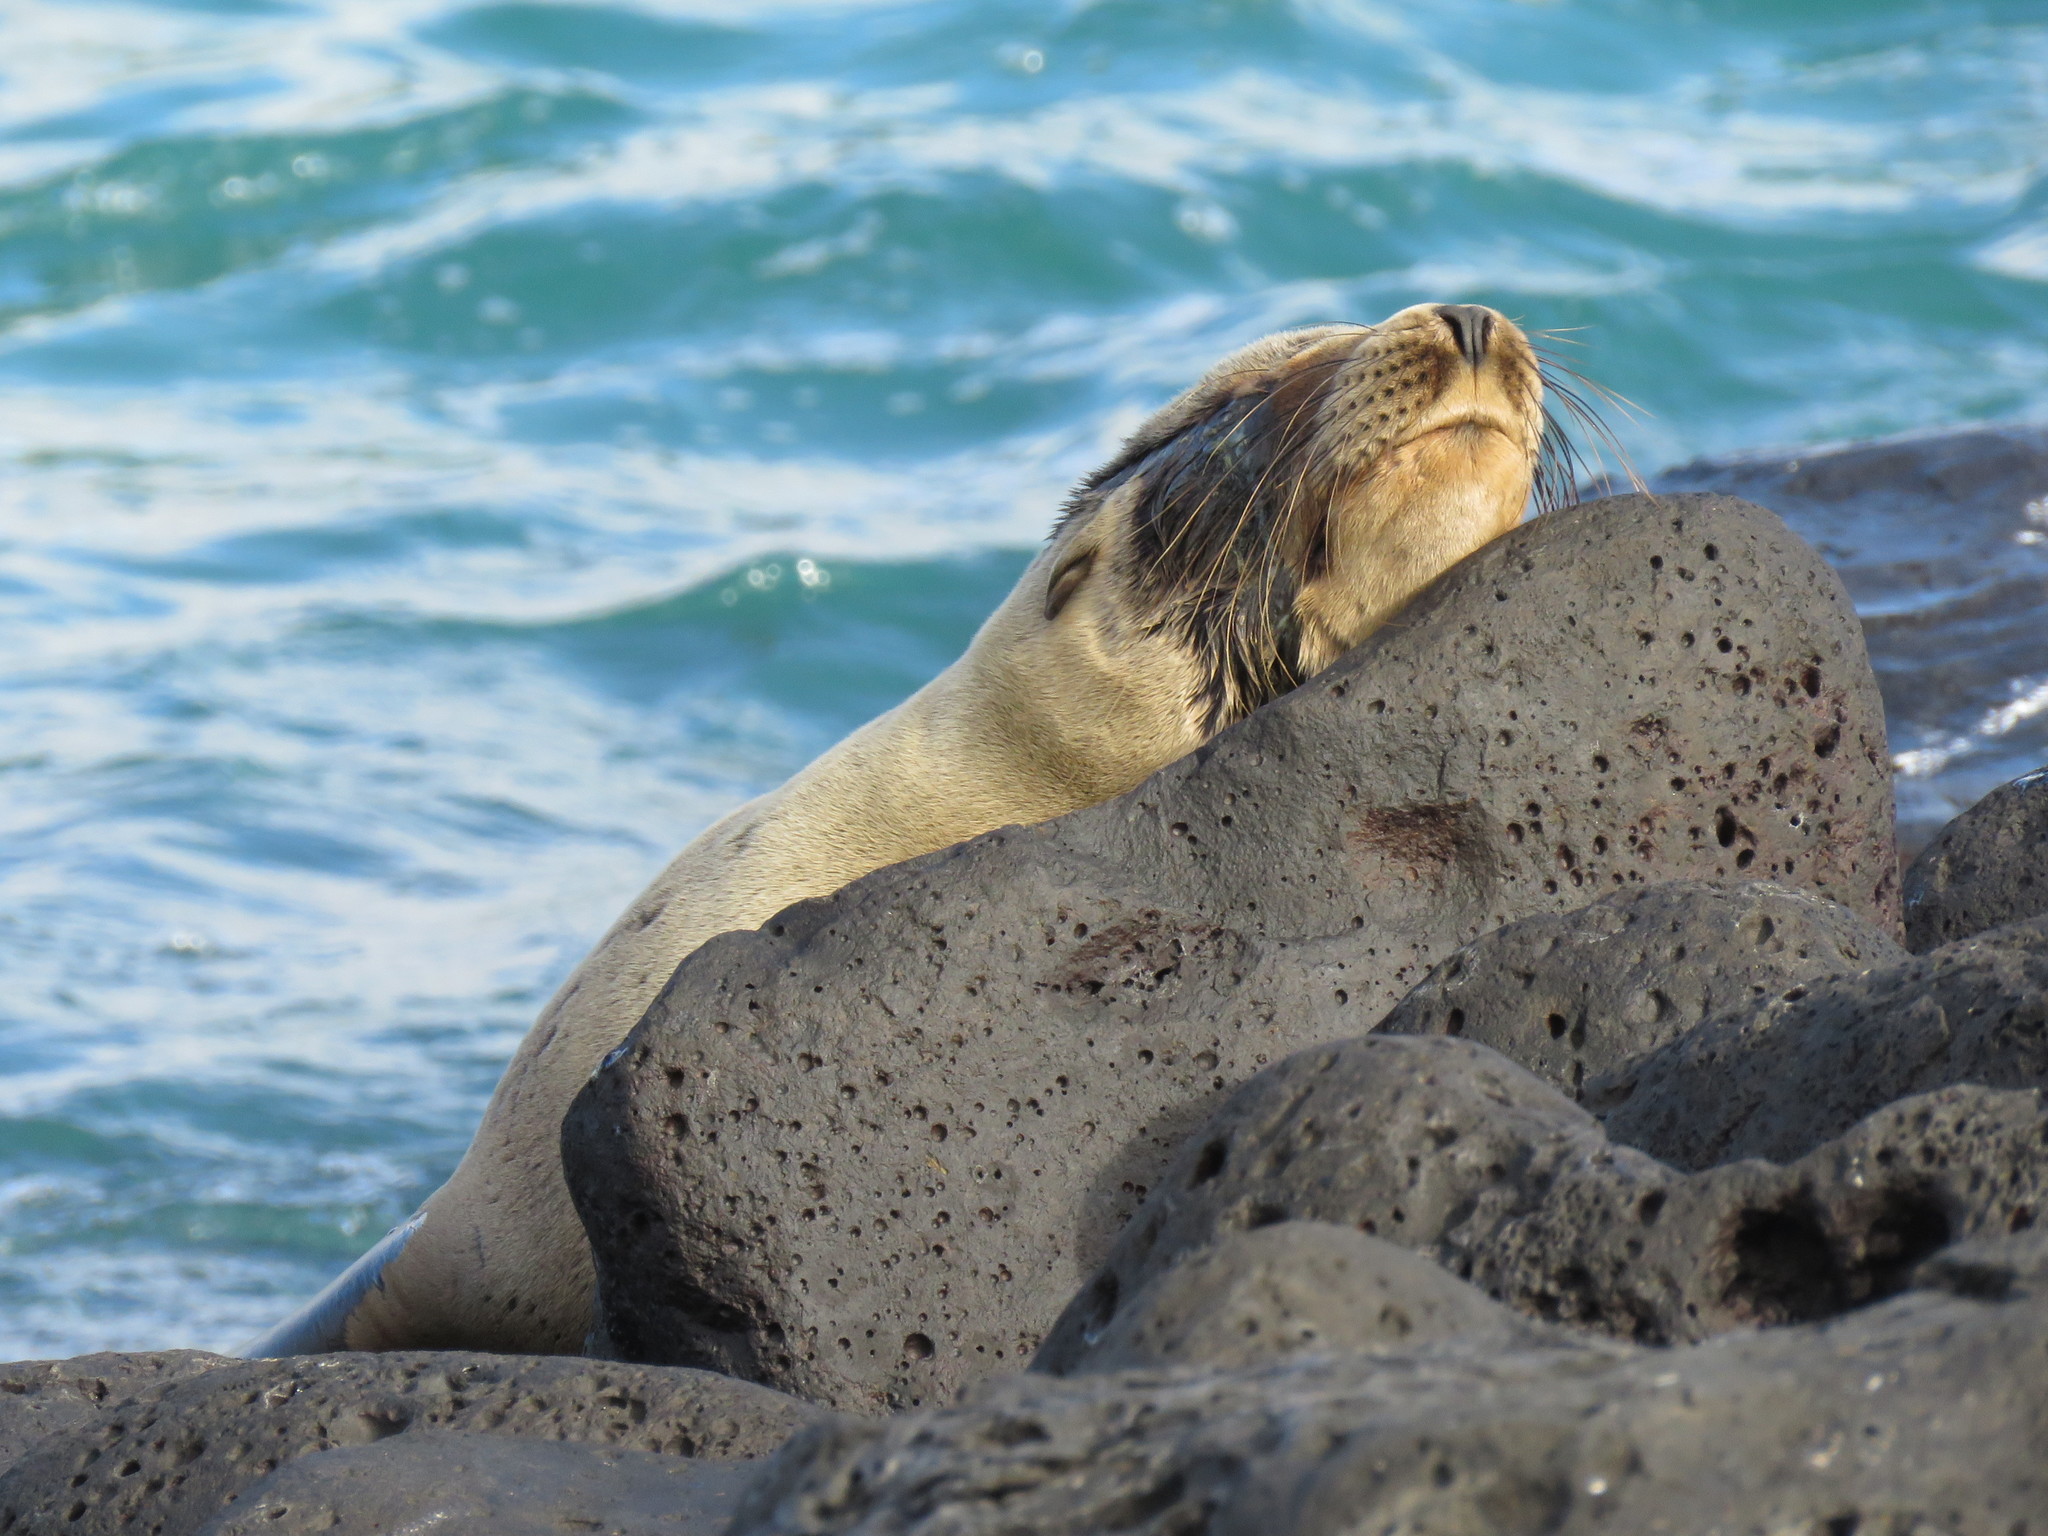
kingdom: Animalia
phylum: Chordata
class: Mammalia
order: Carnivora
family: Otariidae
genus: Zalophus
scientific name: Zalophus wollebaeki
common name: Galapagos sea lion
